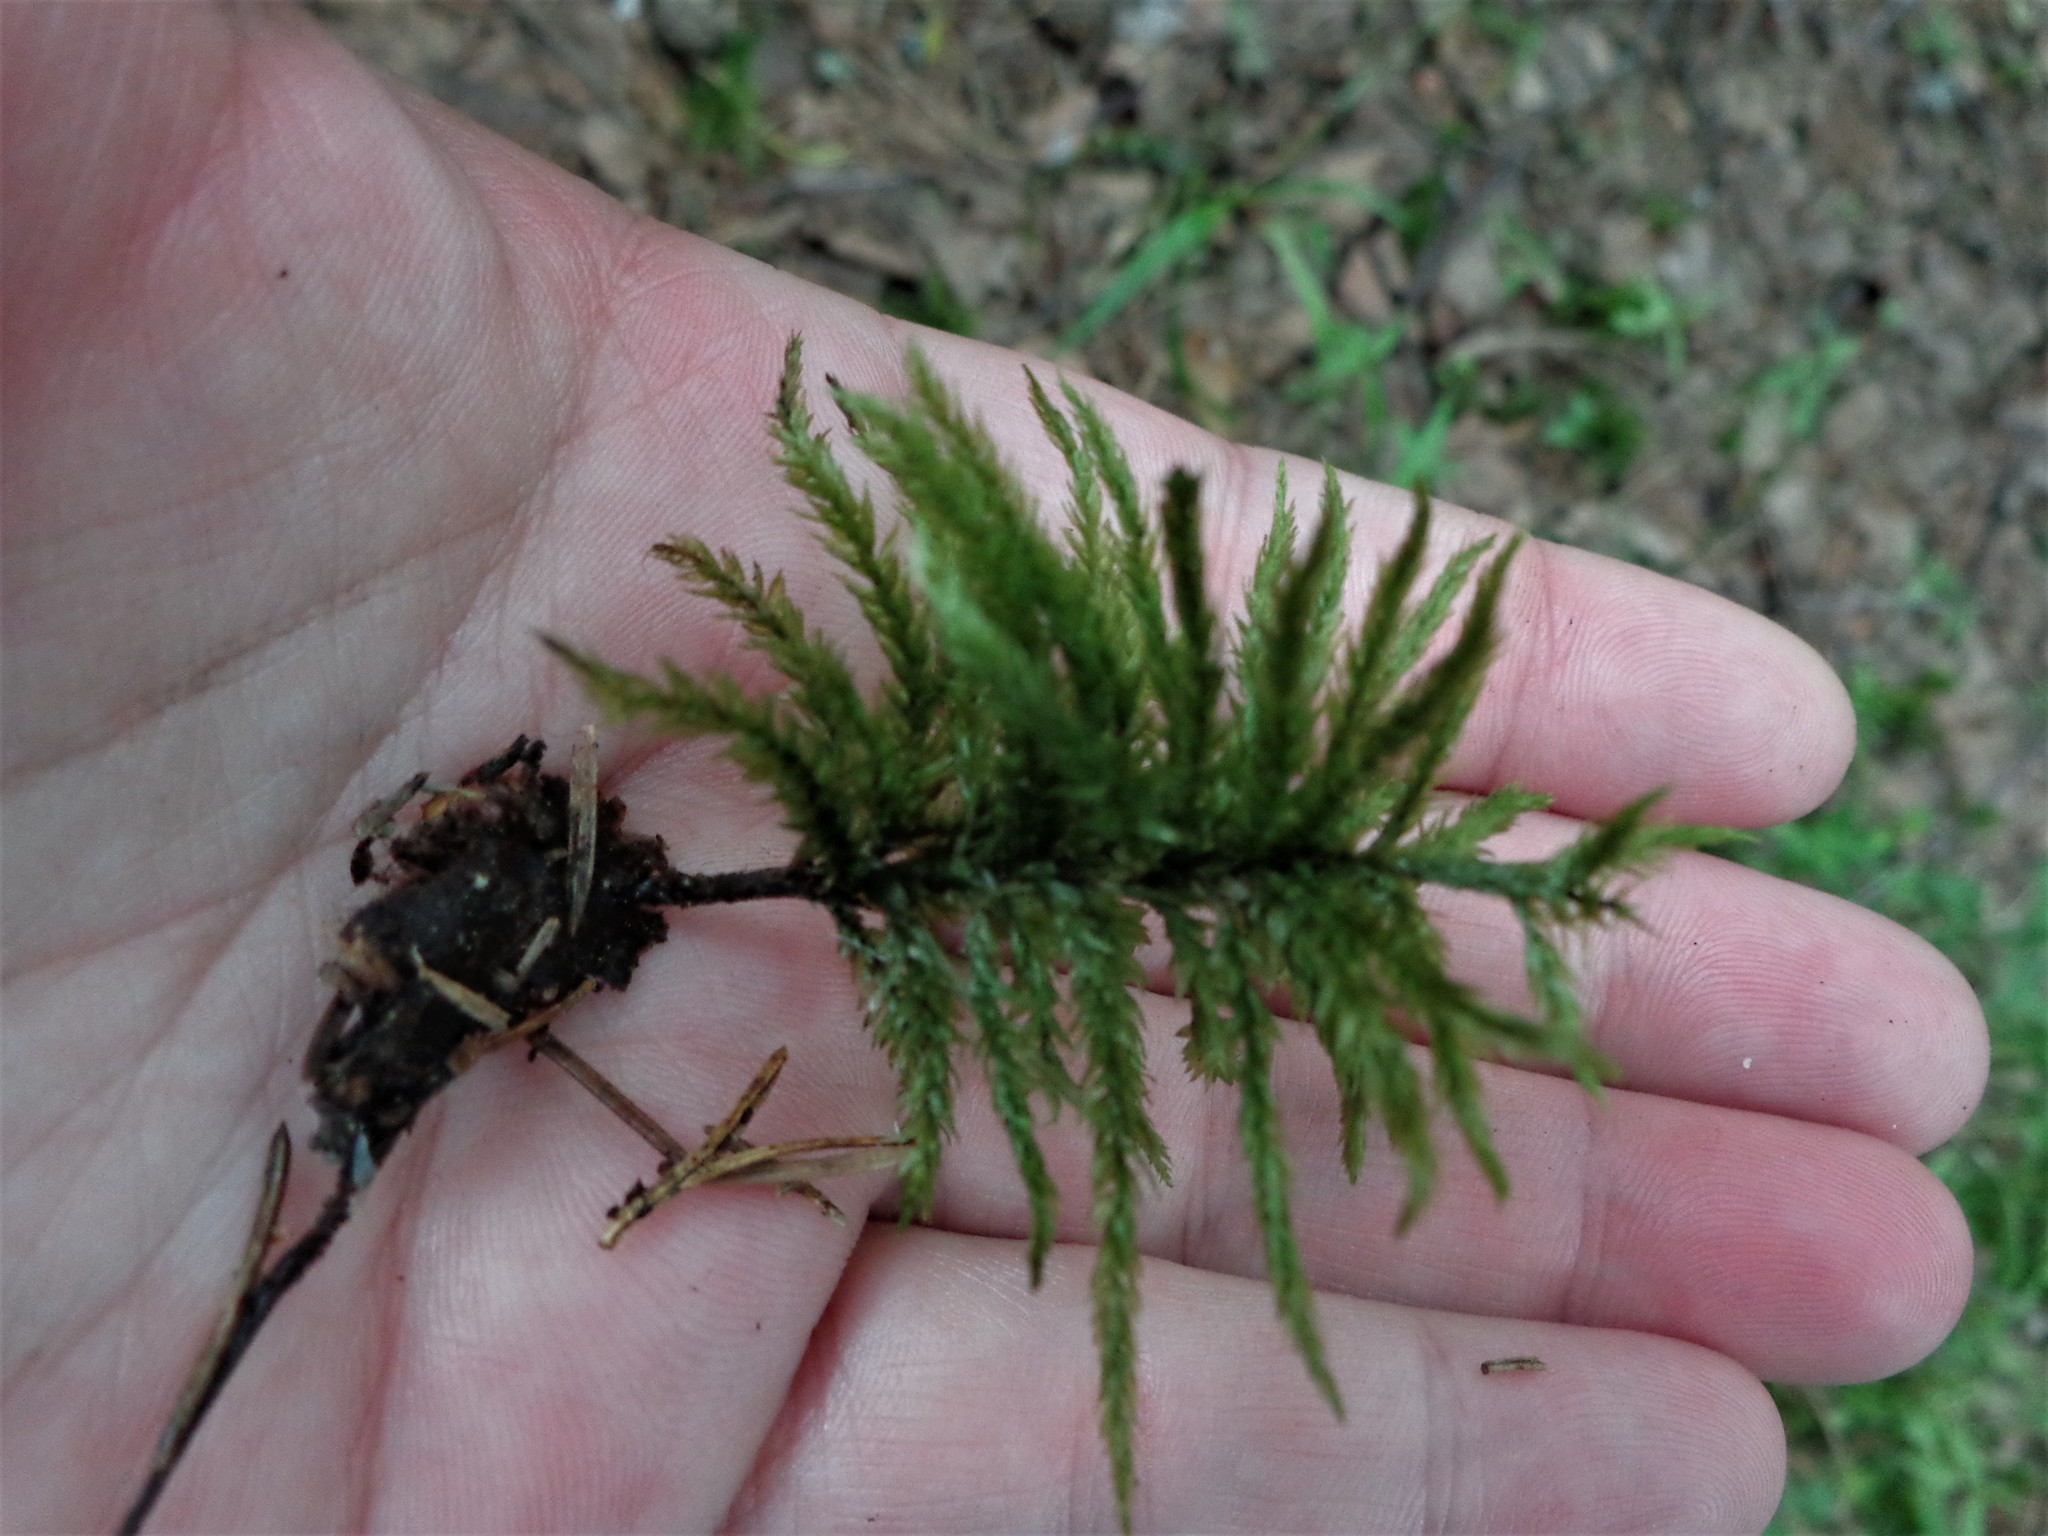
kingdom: Plantae
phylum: Bryophyta
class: Bryopsida
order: Hypnales
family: Climaciaceae
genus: Climacium
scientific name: Climacium dendroides
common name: Northern tree moss
